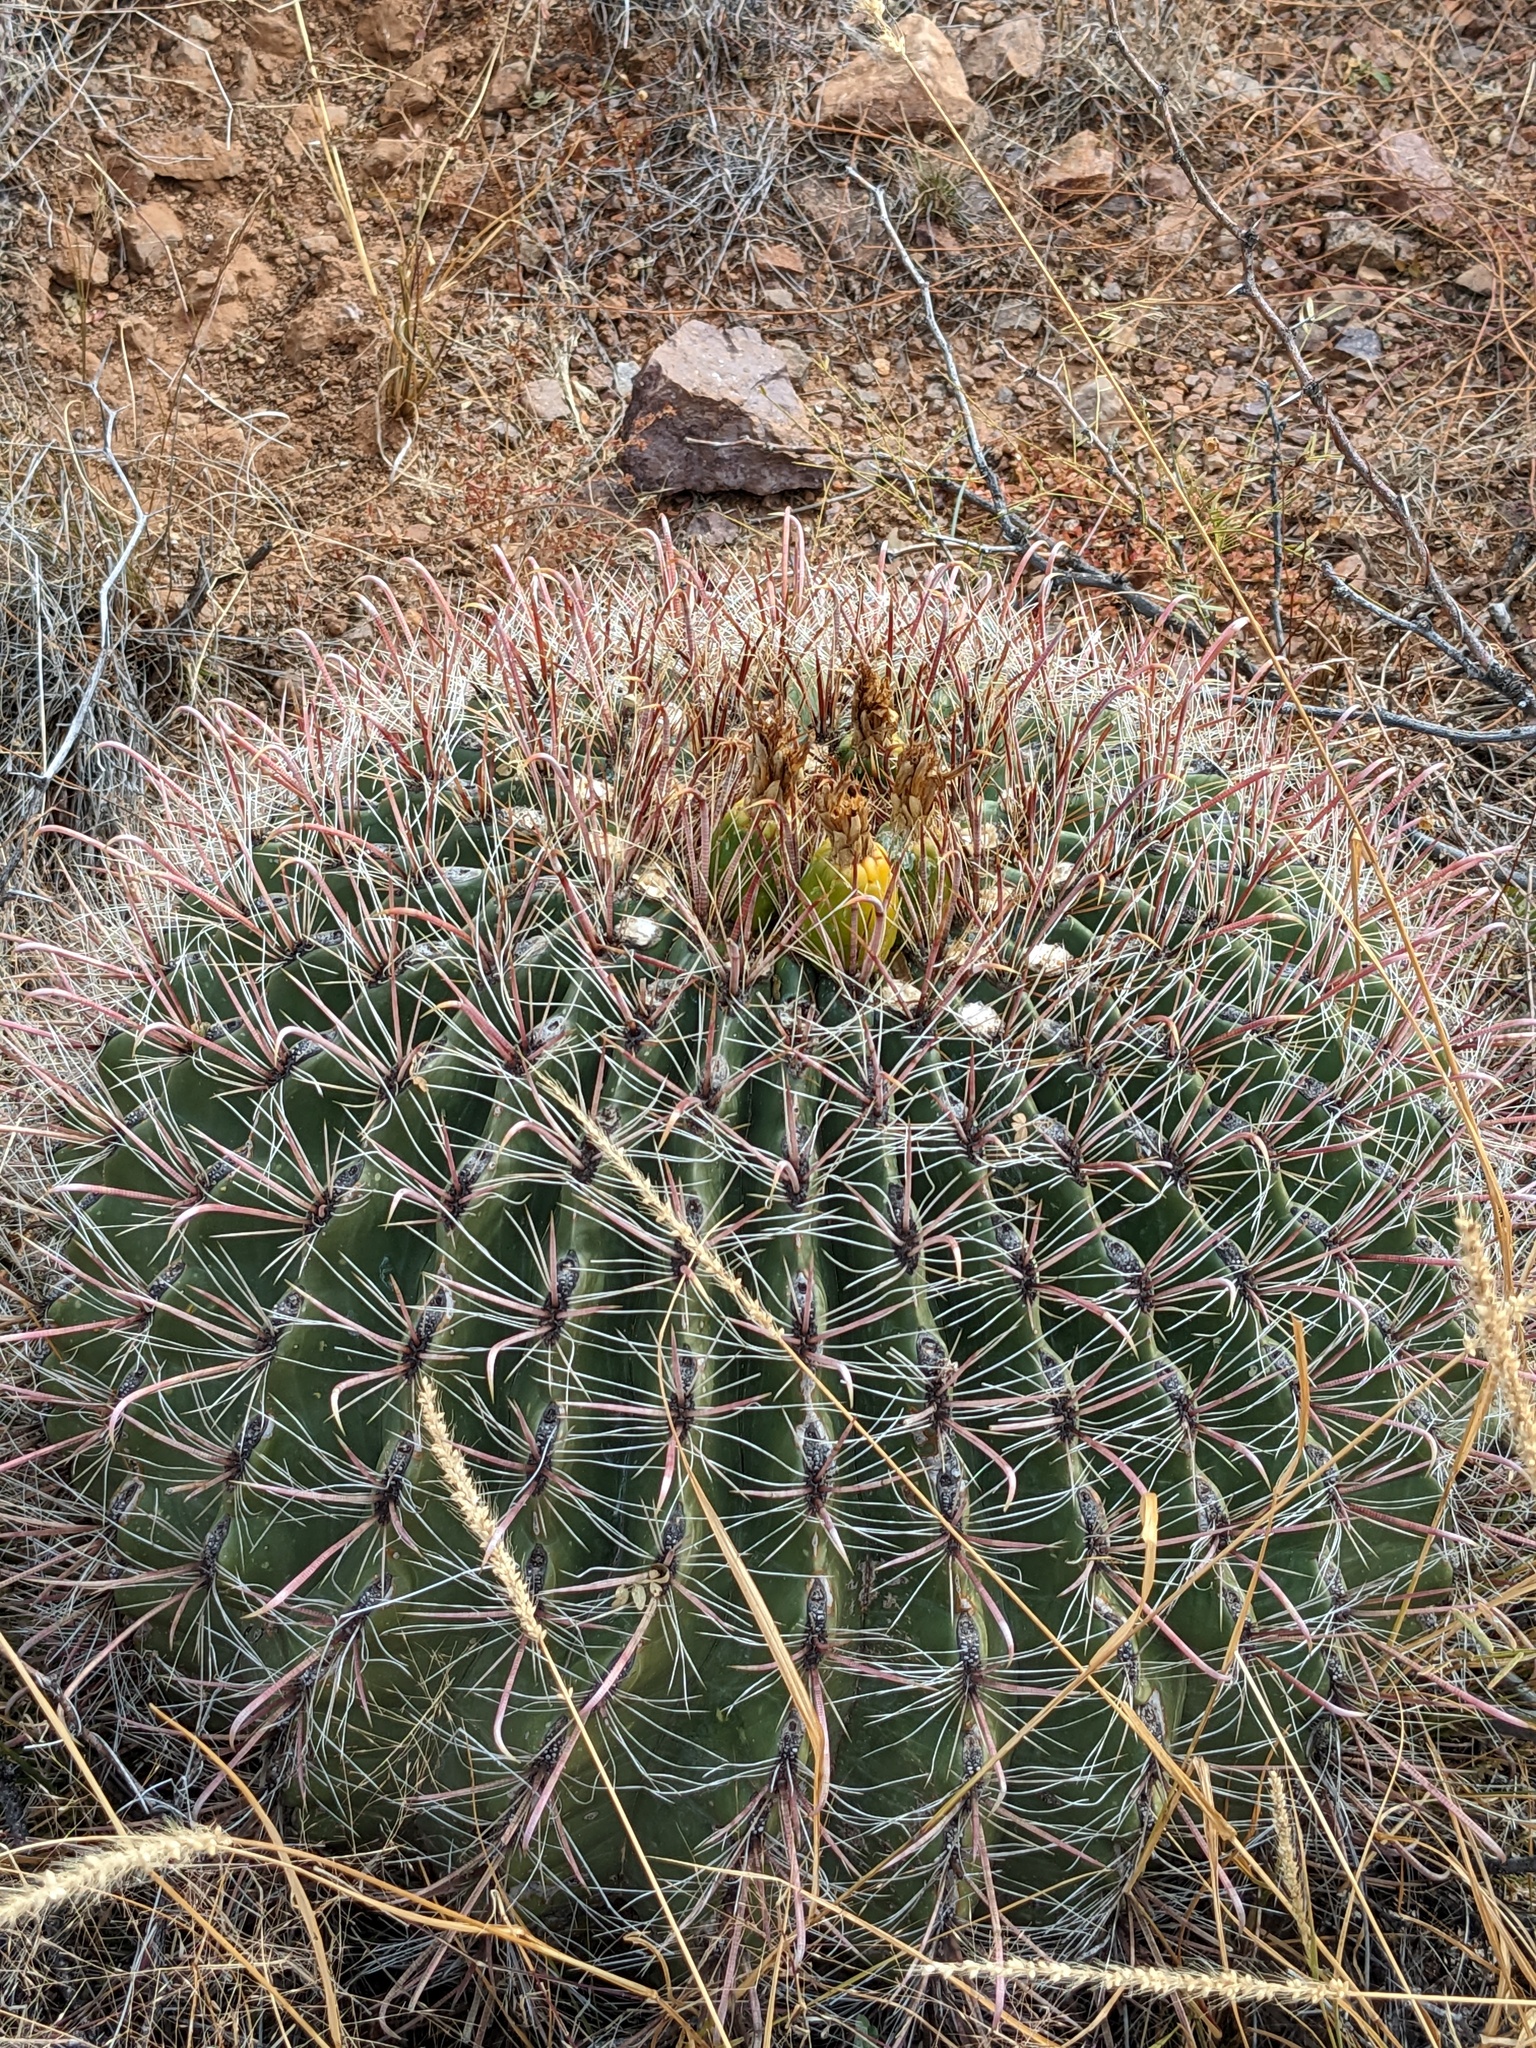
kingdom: Plantae
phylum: Tracheophyta
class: Magnoliopsida
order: Caryophyllales
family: Cactaceae
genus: Ferocactus
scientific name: Ferocactus wislizeni
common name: Candy barrel cactus
